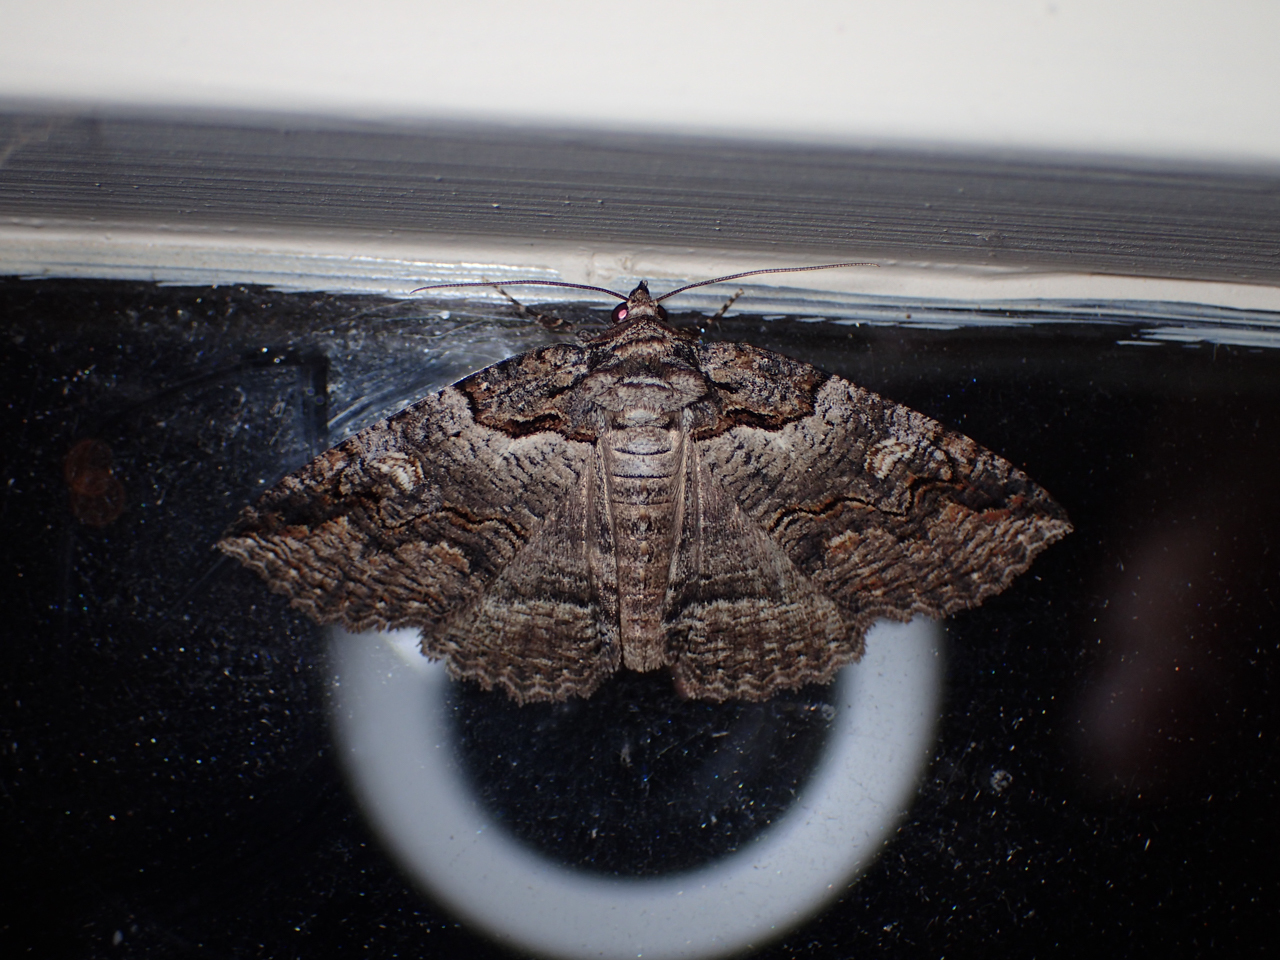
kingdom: Animalia
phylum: Arthropoda
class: Insecta
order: Lepidoptera
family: Erebidae
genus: Zale
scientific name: Zale intenta
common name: Intent zale moth
